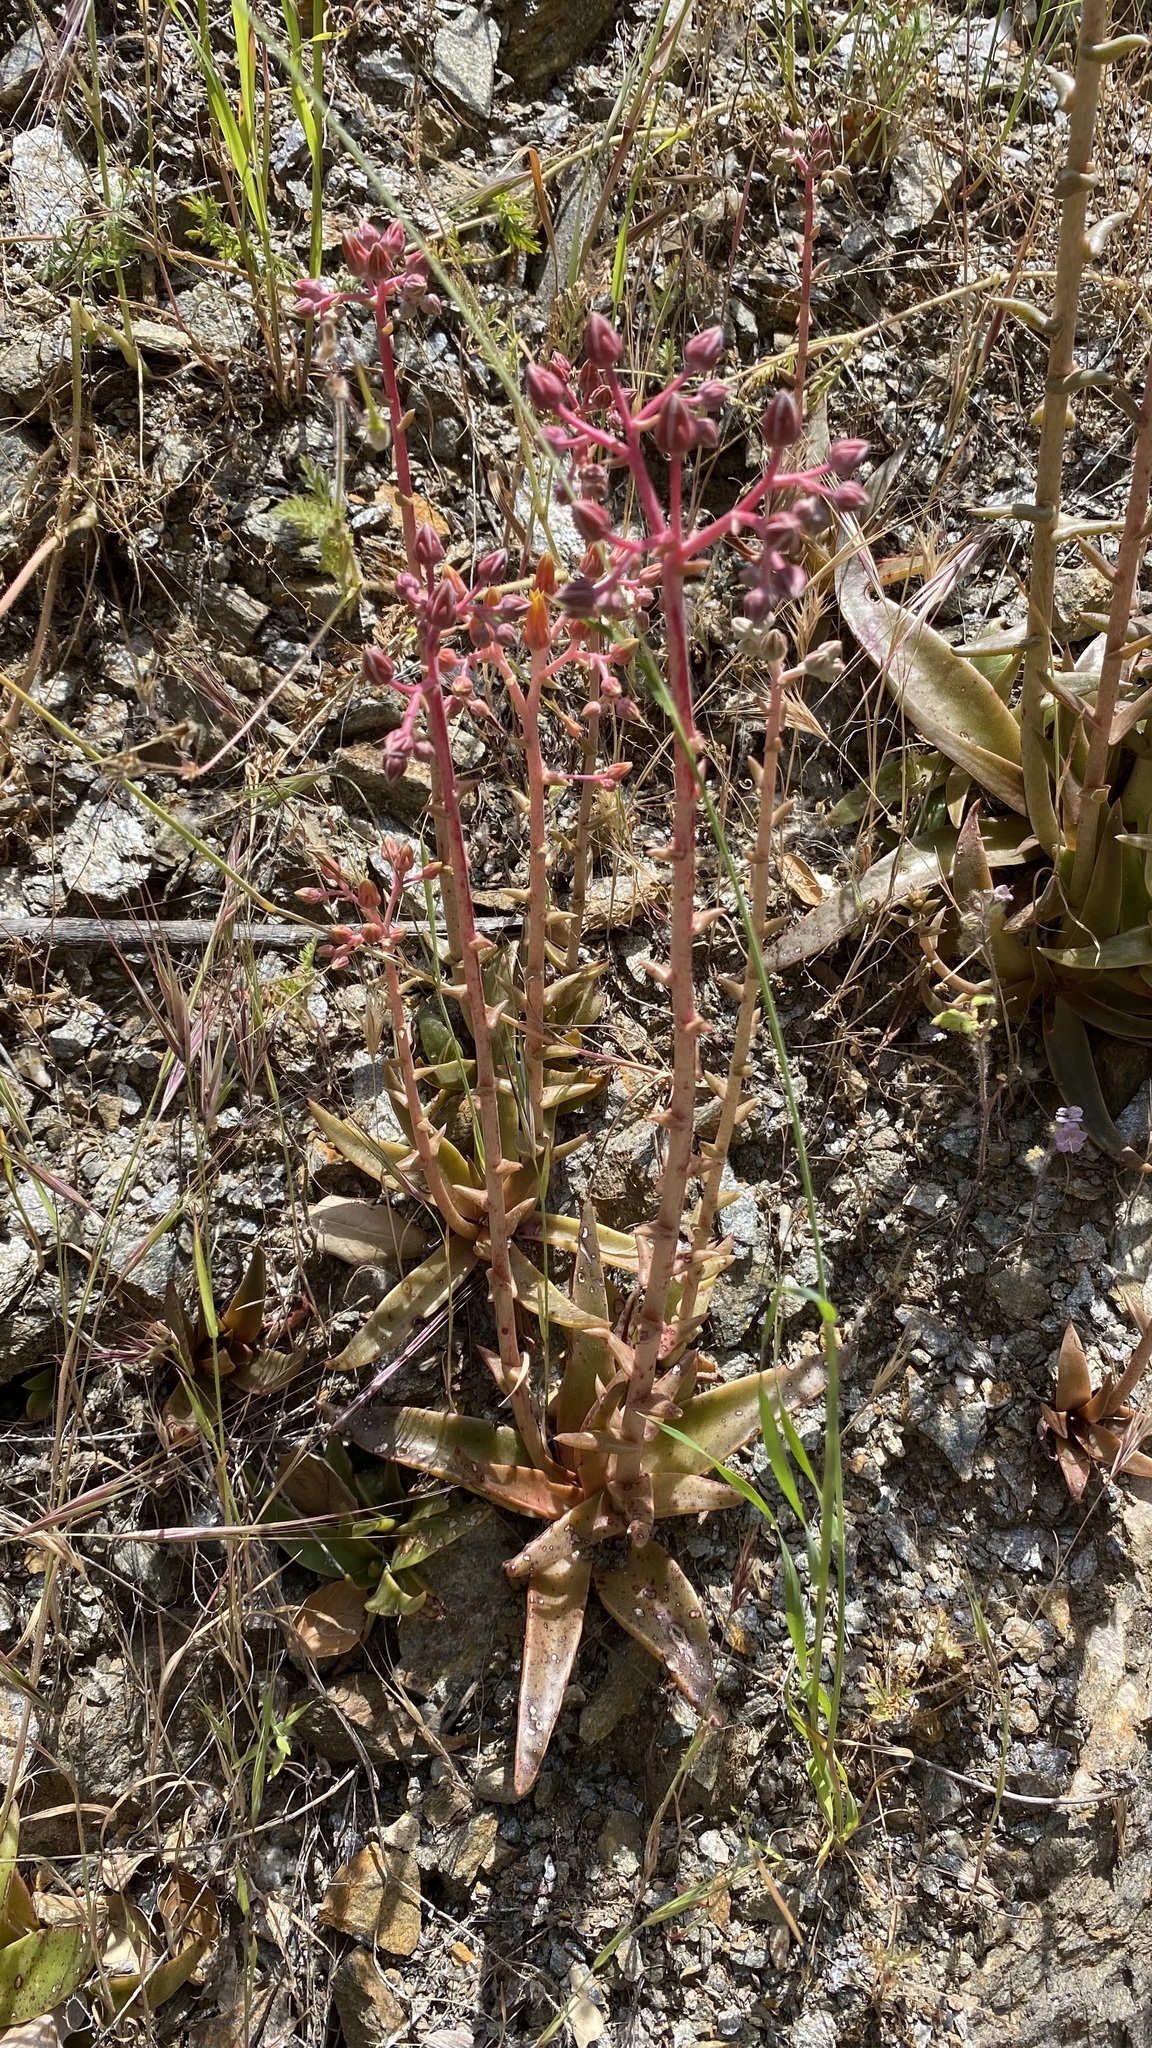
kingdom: Plantae
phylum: Tracheophyta
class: Magnoliopsida
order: Saxifragales
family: Crassulaceae
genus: Dudleya
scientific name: Dudleya lanceolata
